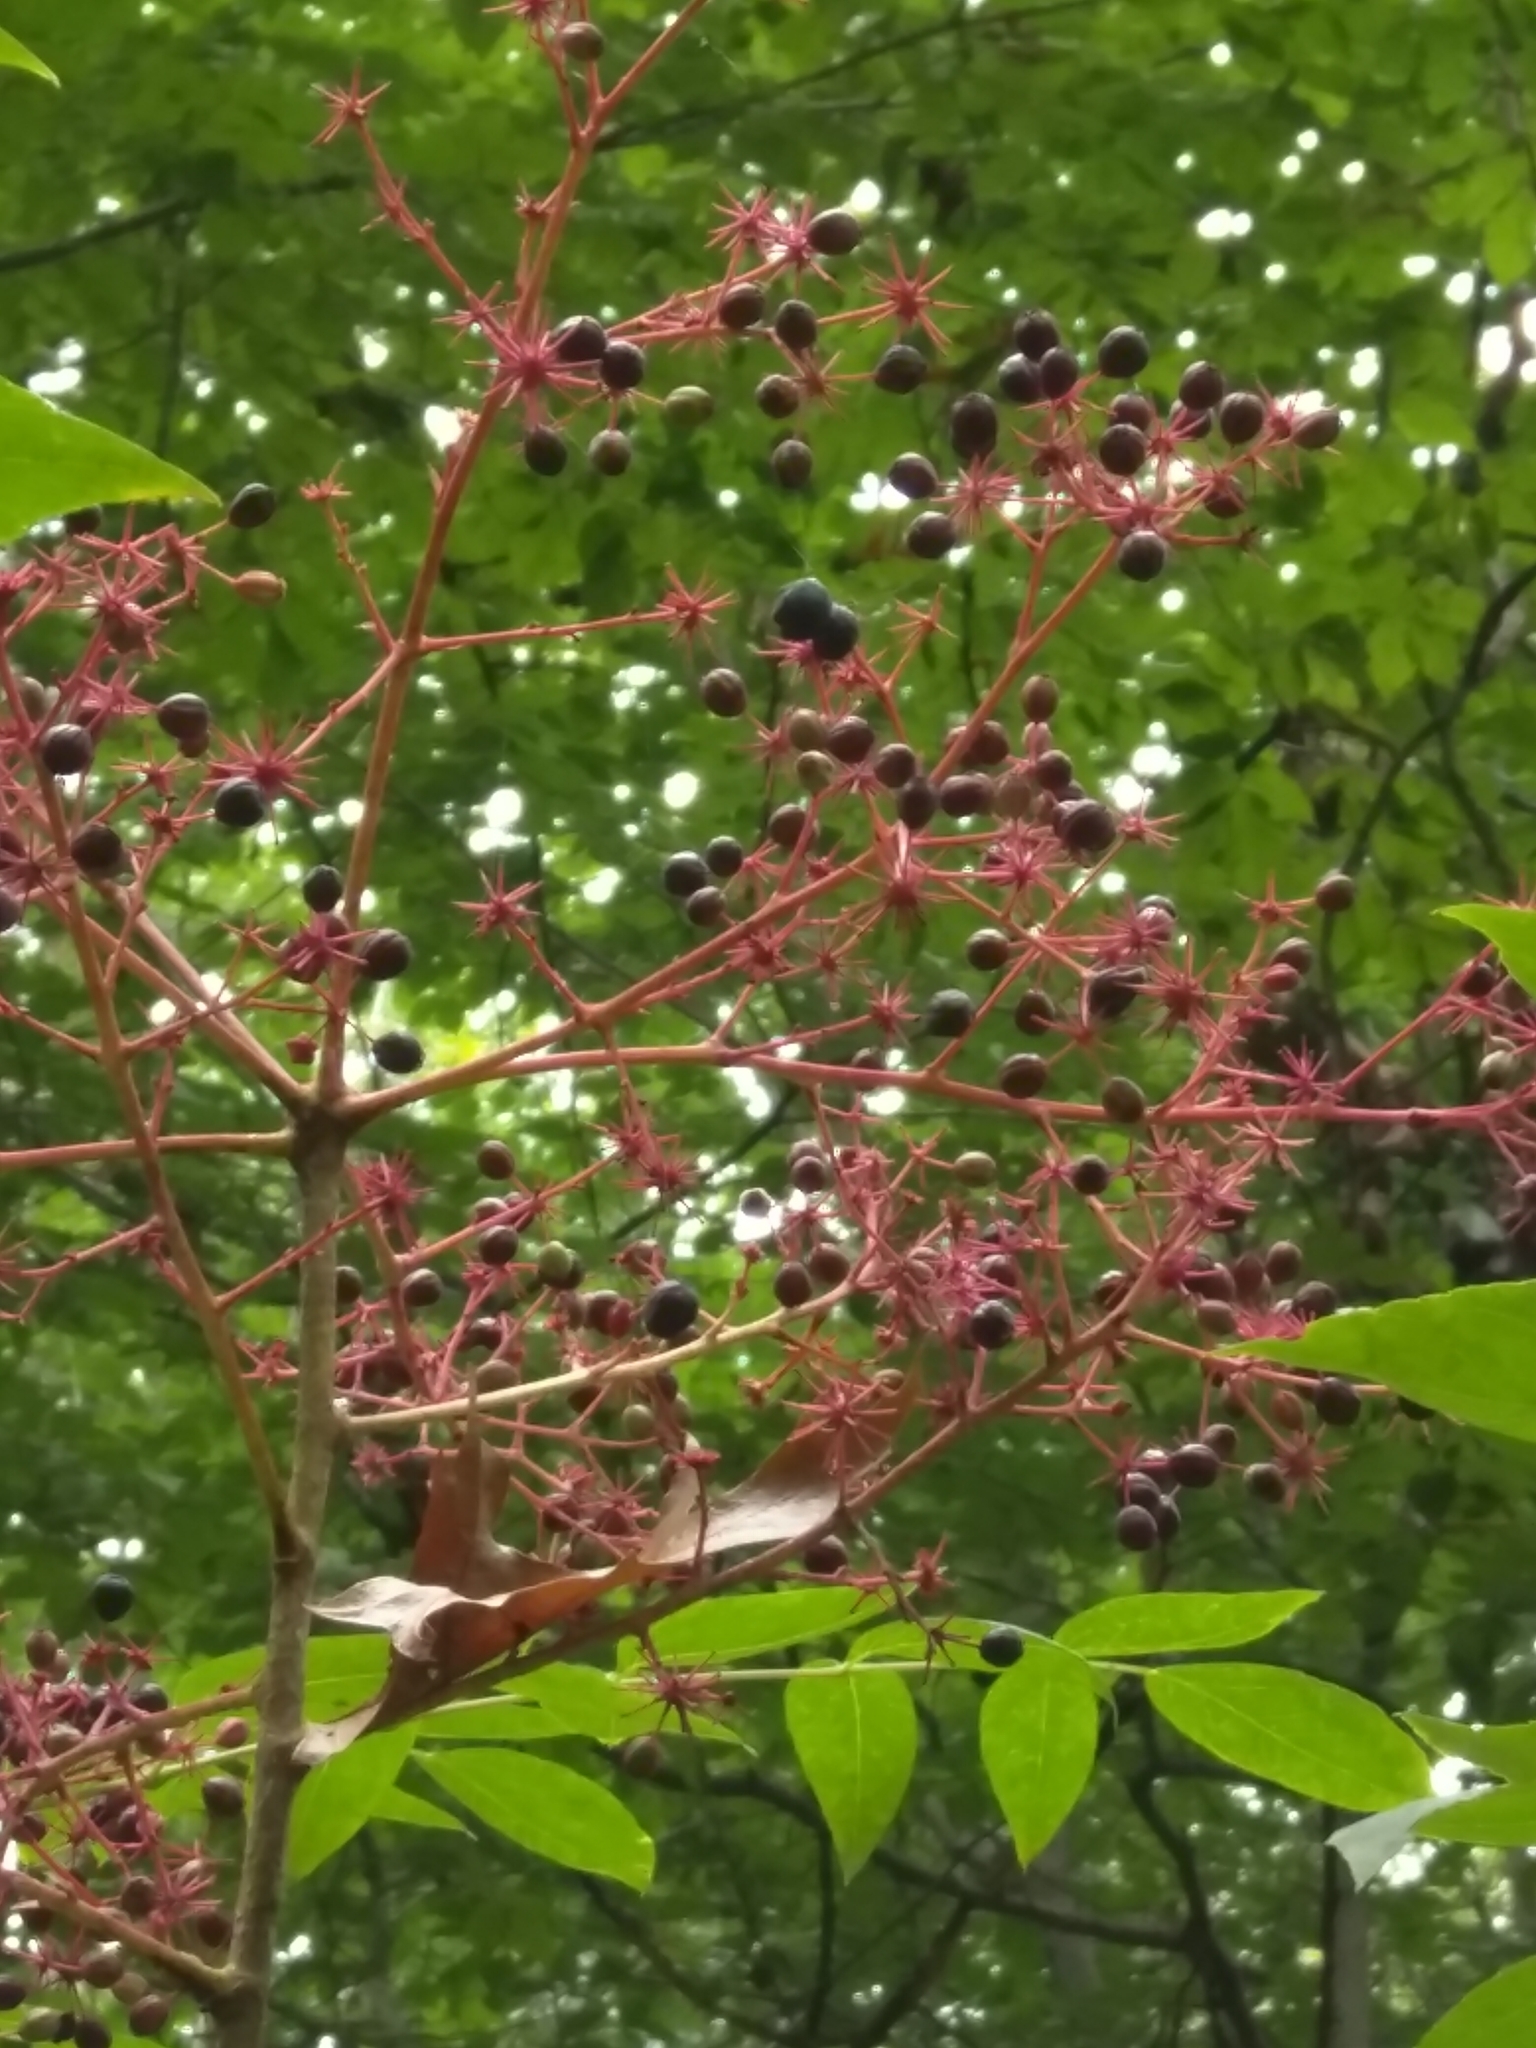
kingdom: Plantae
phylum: Tracheophyta
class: Magnoliopsida
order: Apiales
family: Araliaceae
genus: Aralia
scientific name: Aralia spinosa
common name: Hercules'-club
